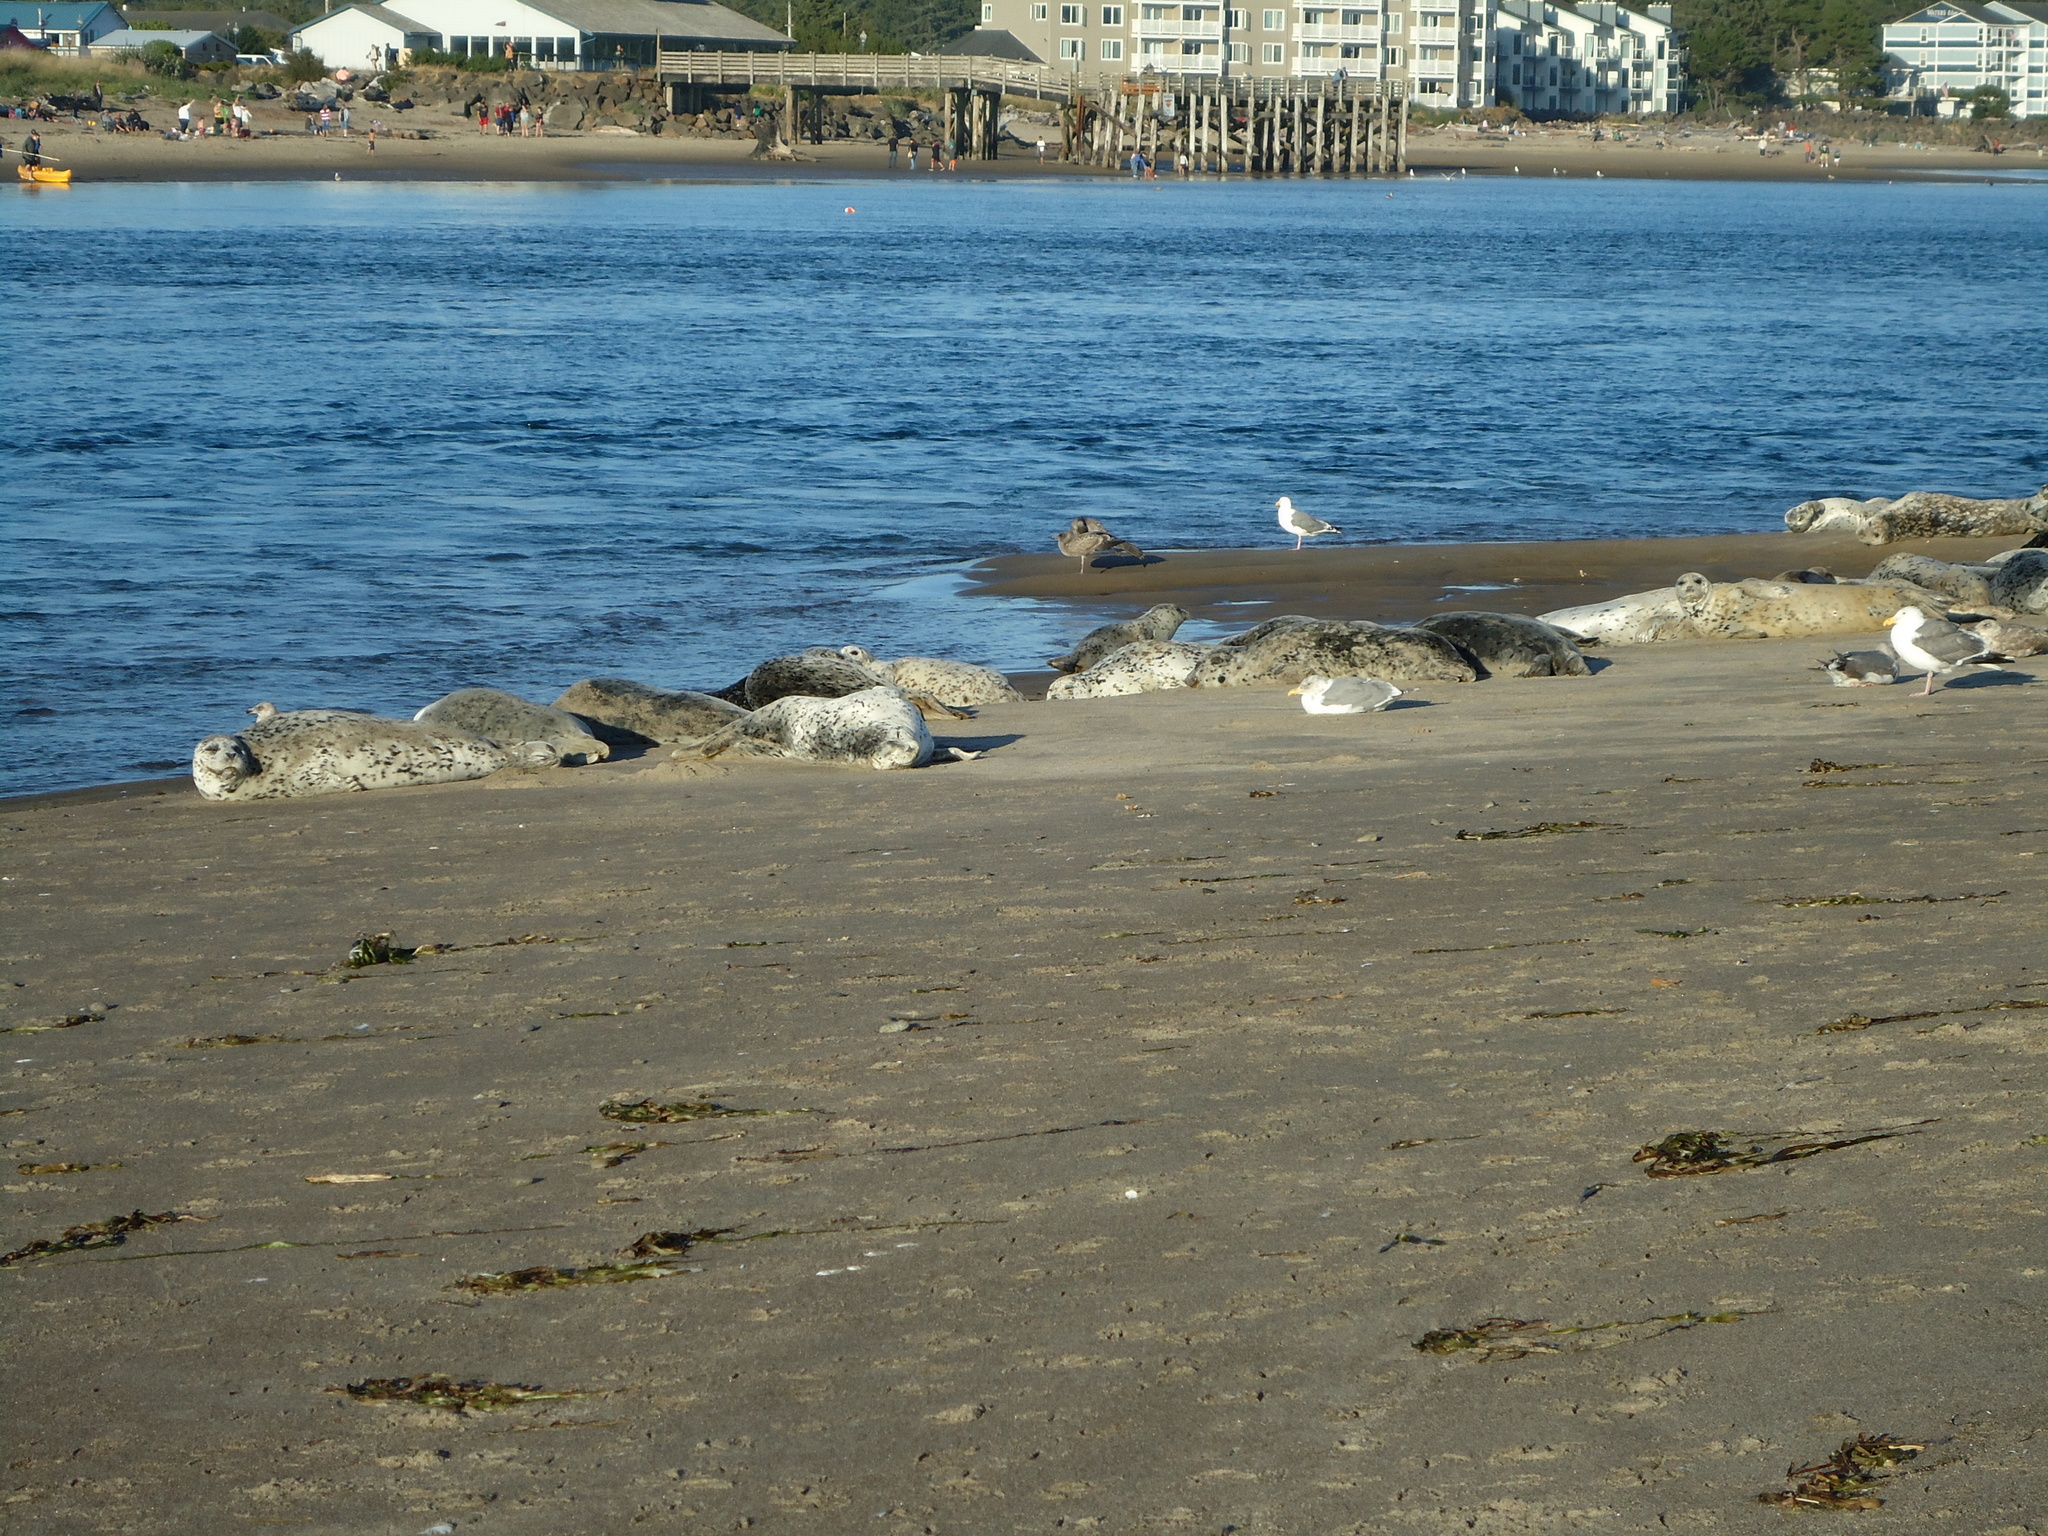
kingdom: Animalia
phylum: Chordata
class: Aves
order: Charadriiformes
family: Laridae
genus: Larus
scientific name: Larus occidentalis
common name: Western gull
